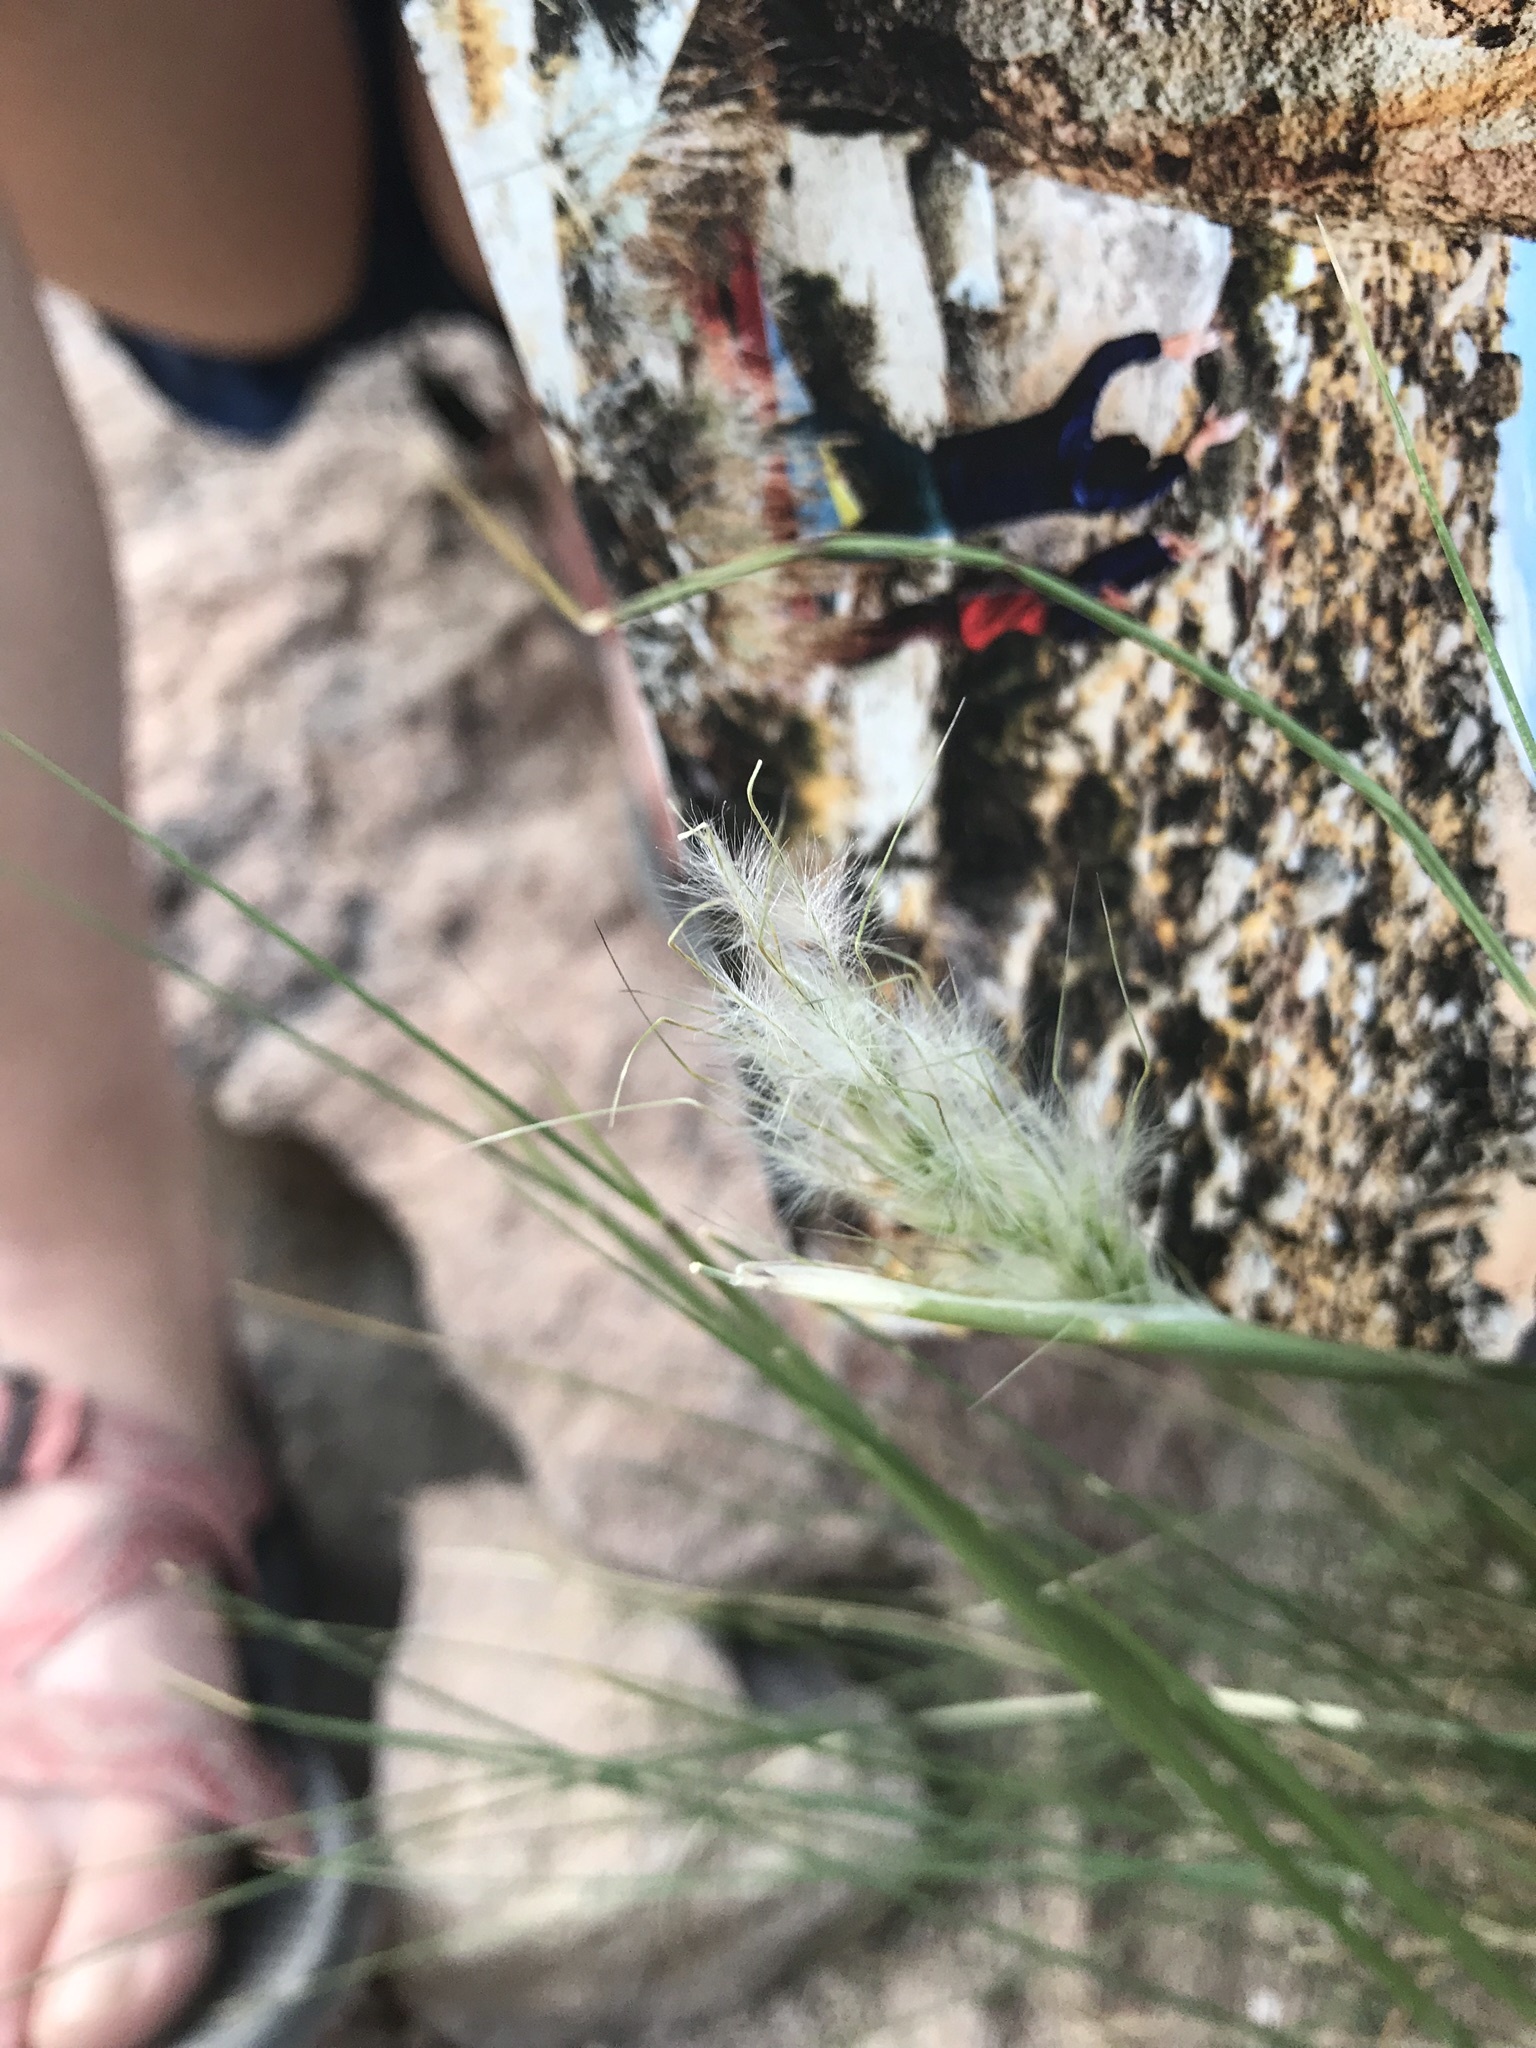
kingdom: Plantae
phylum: Tracheophyta
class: Liliopsida
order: Poales
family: Poaceae
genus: Pappostipa
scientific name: Pappostipa speciosa
